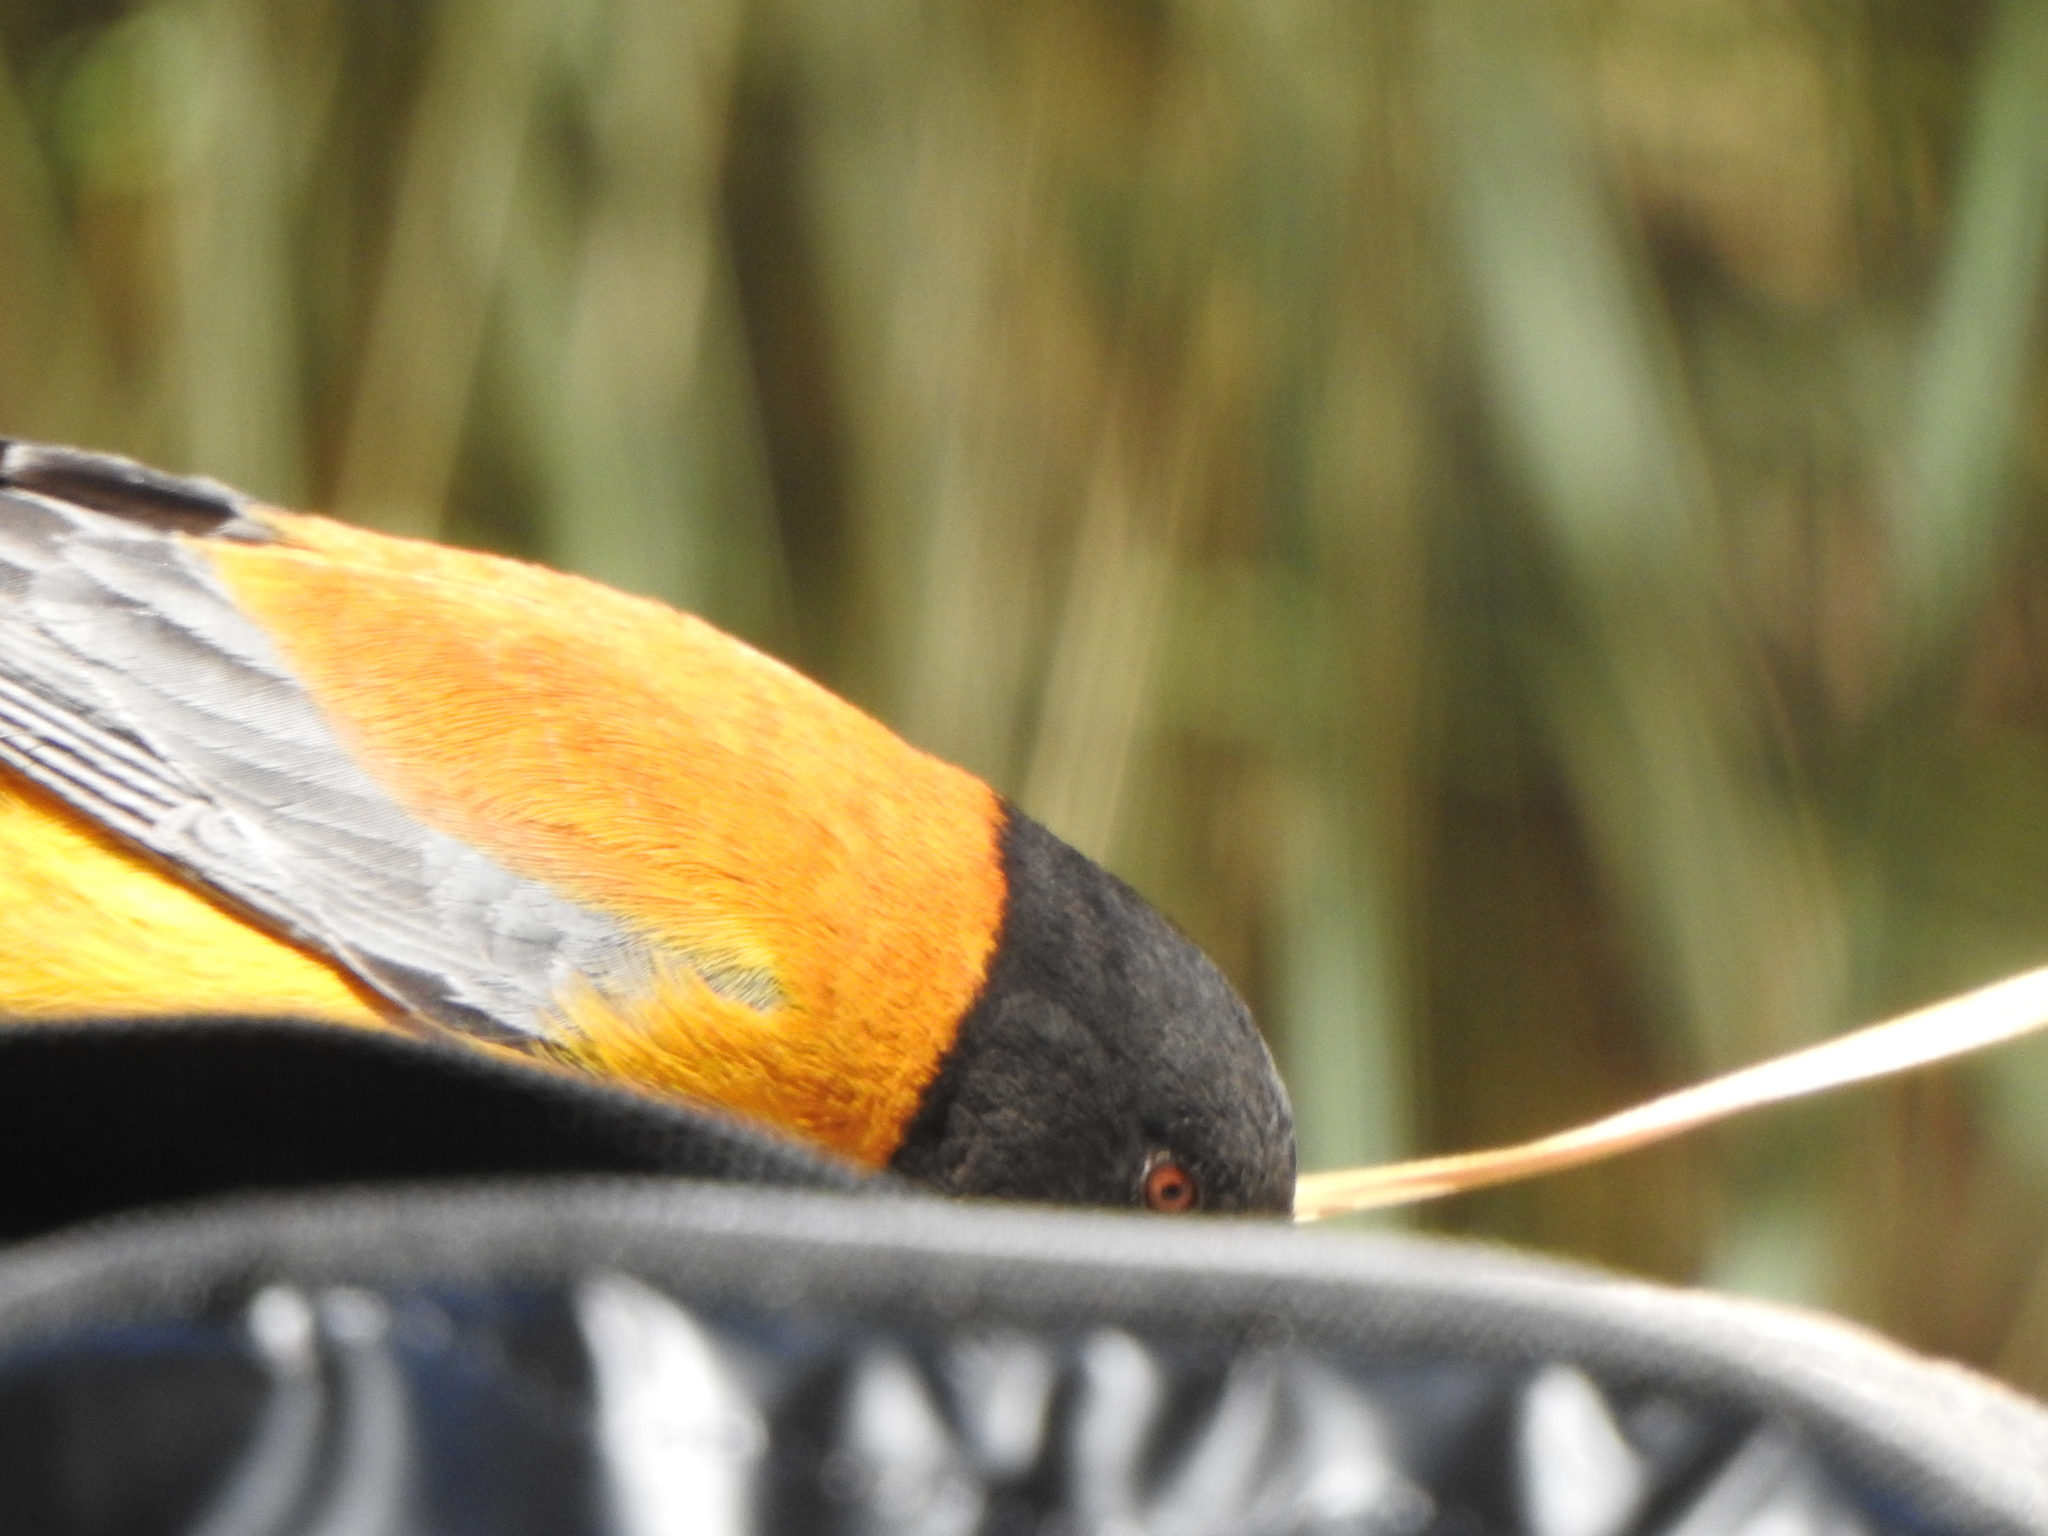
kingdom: Animalia
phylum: Chordata
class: Aves
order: Passeriformes
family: Thraupidae
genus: Phrygilus
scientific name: Phrygilus atriceps
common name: Black-hooded sierra finch
